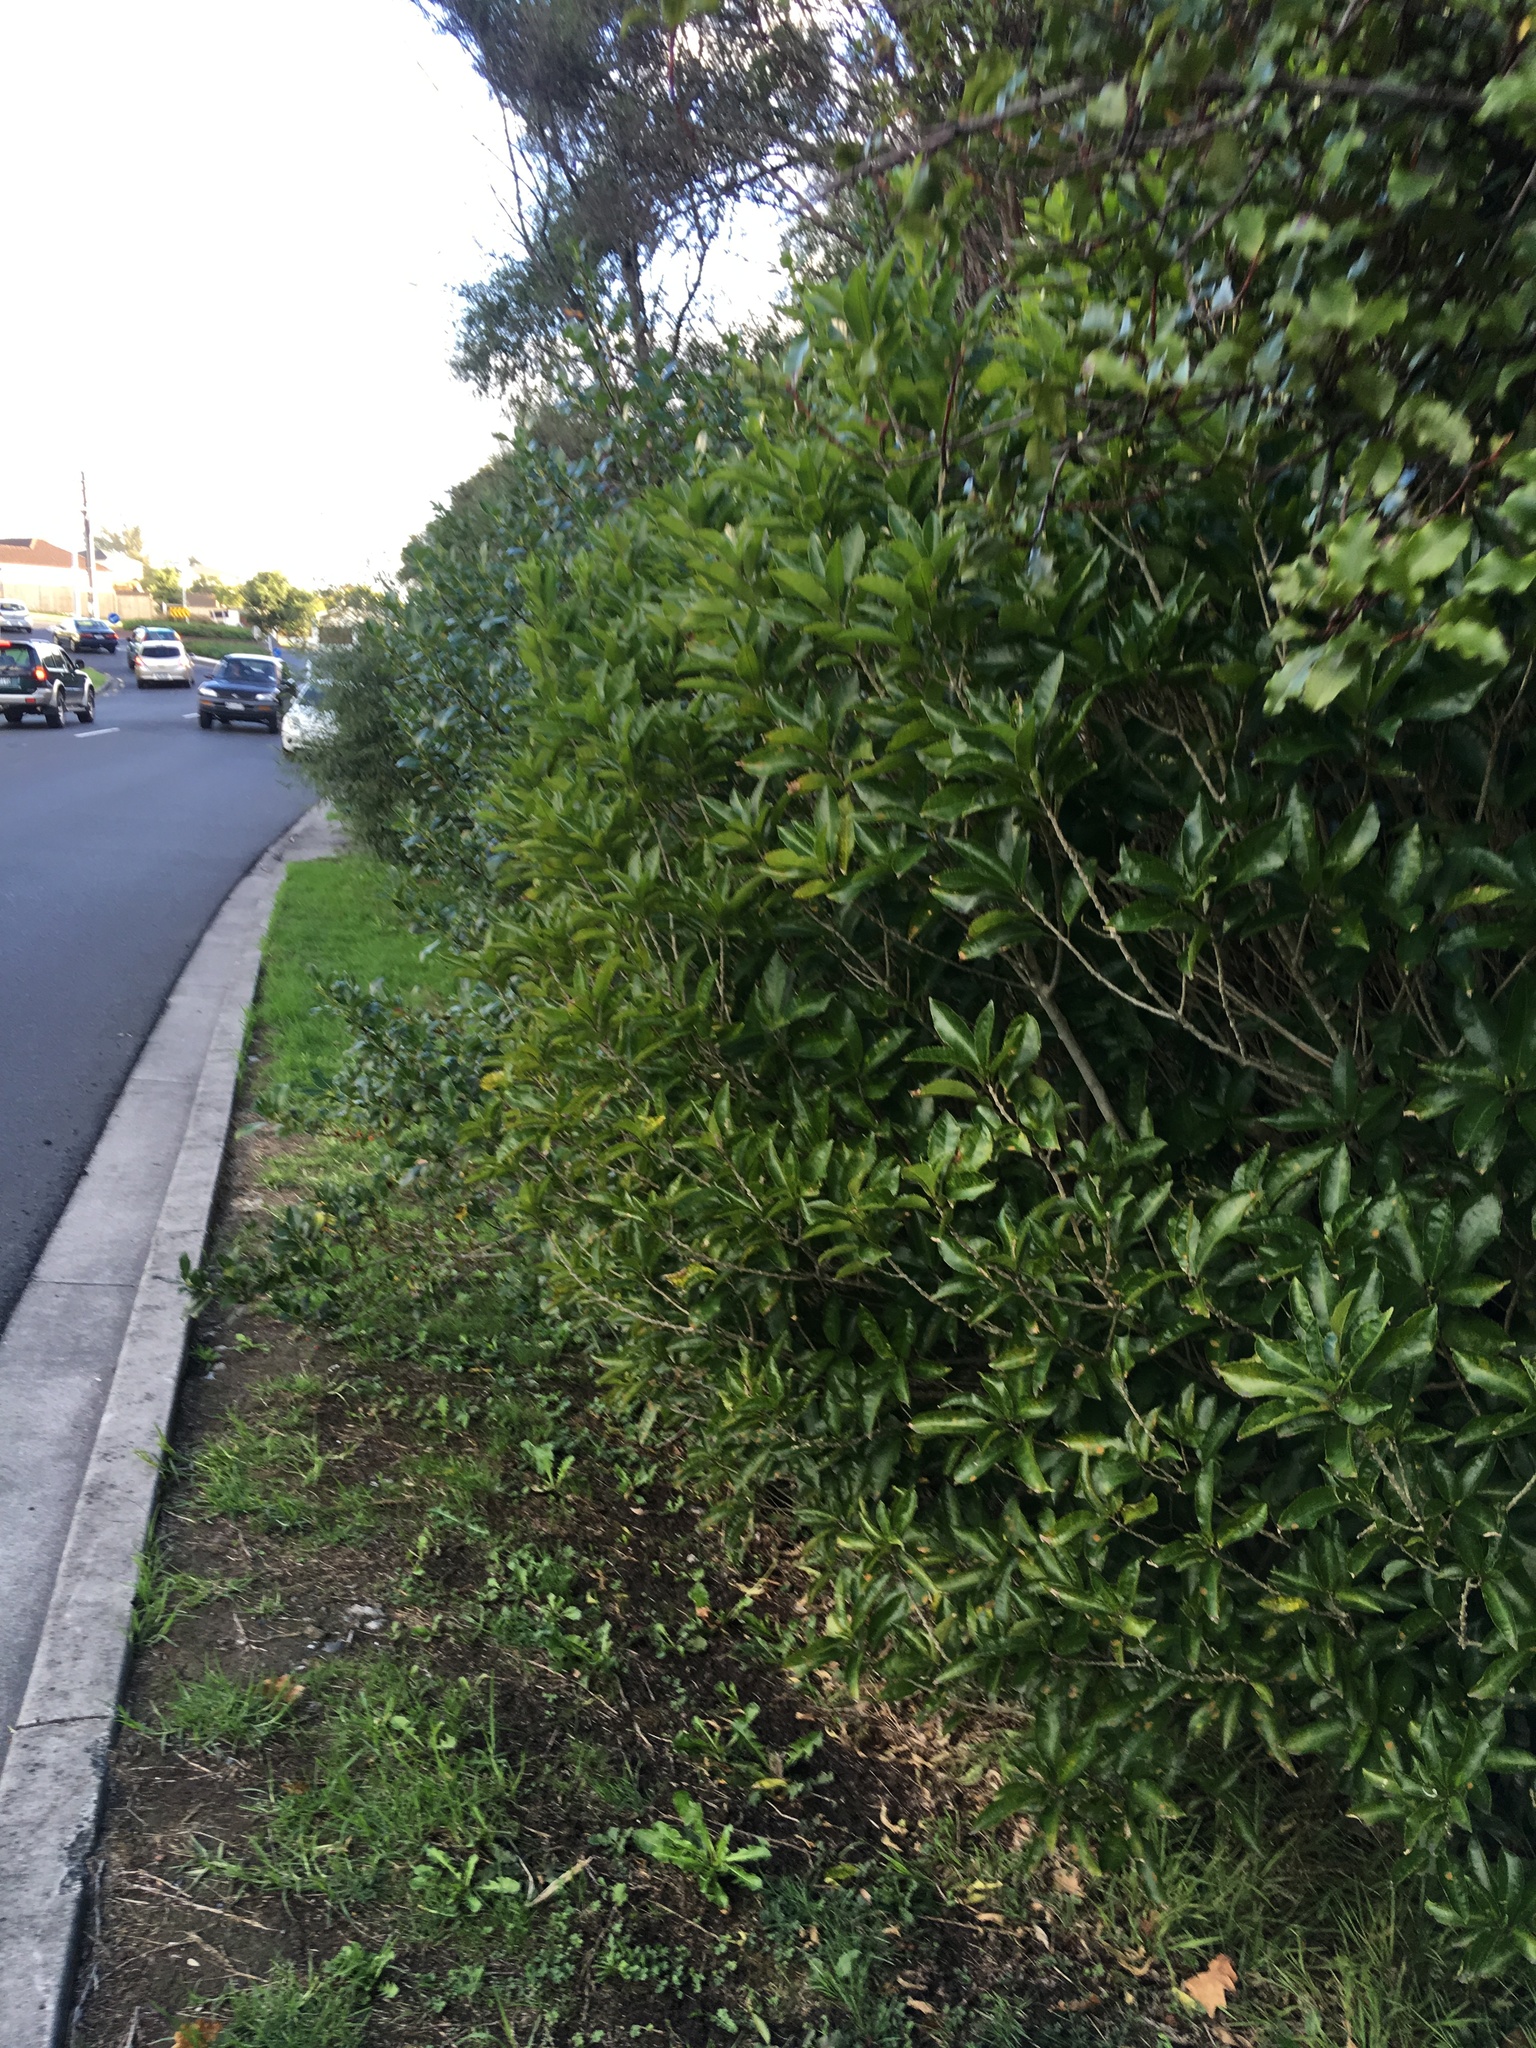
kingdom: Plantae
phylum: Tracheophyta
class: Magnoliopsida
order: Malpighiales
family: Violaceae
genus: Melicytus
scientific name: Melicytus ramiflorus
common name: Mahoe
